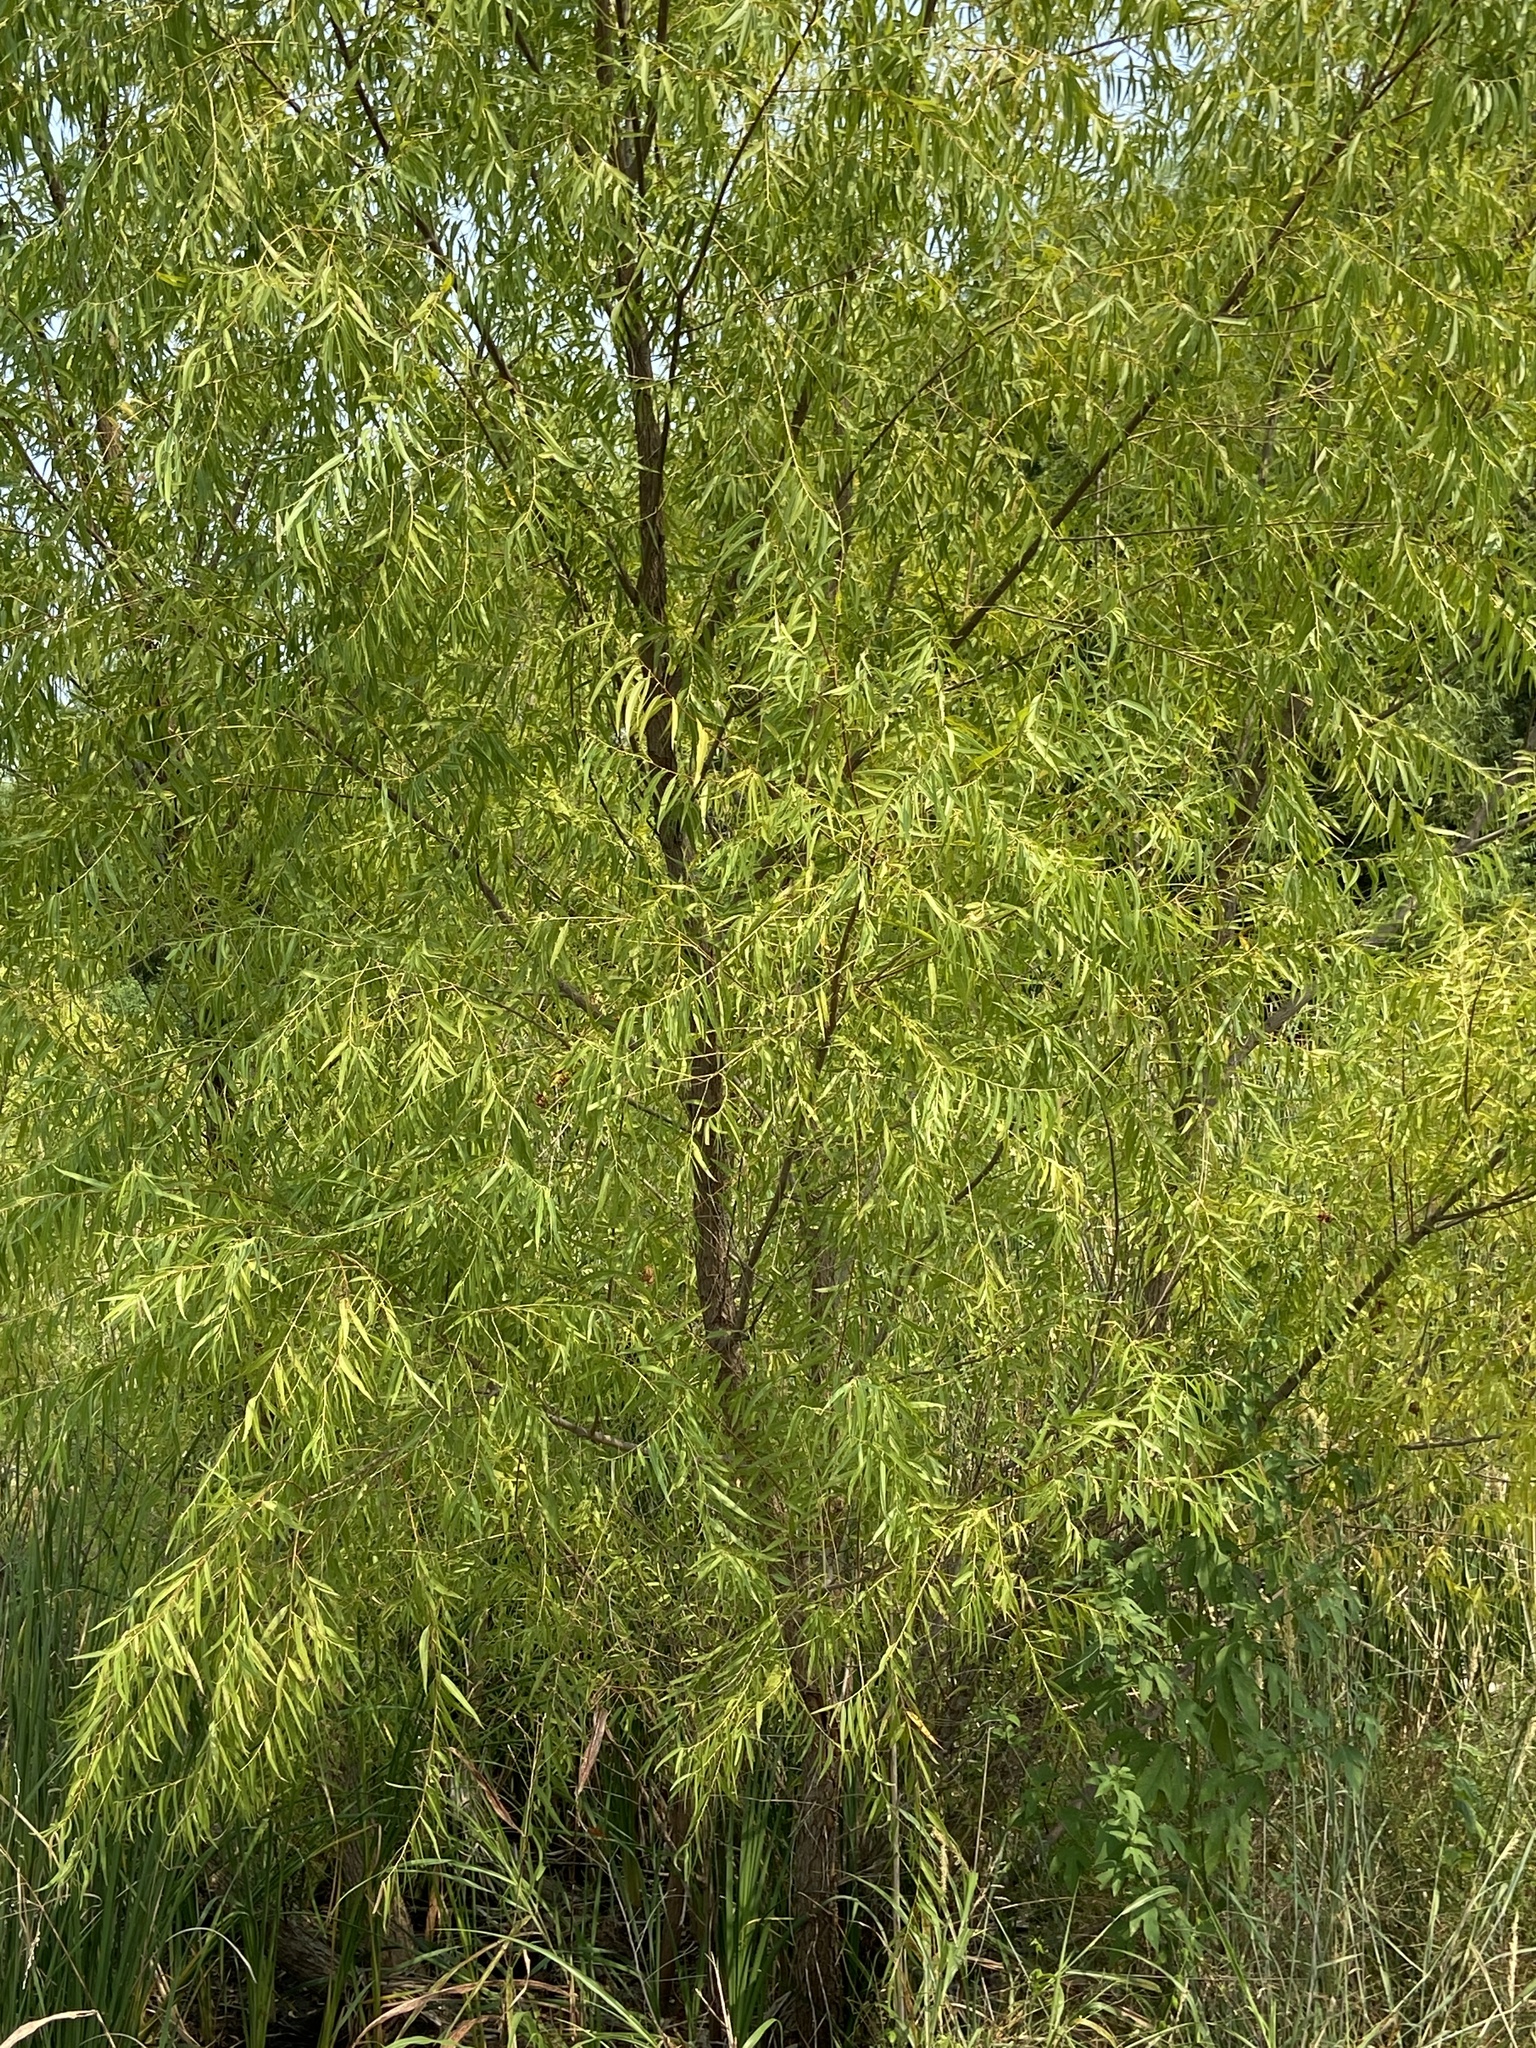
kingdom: Plantae
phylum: Tracheophyta
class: Magnoliopsida
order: Malpighiales
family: Salicaceae
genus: Salix
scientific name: Salix nigra
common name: Black willow
